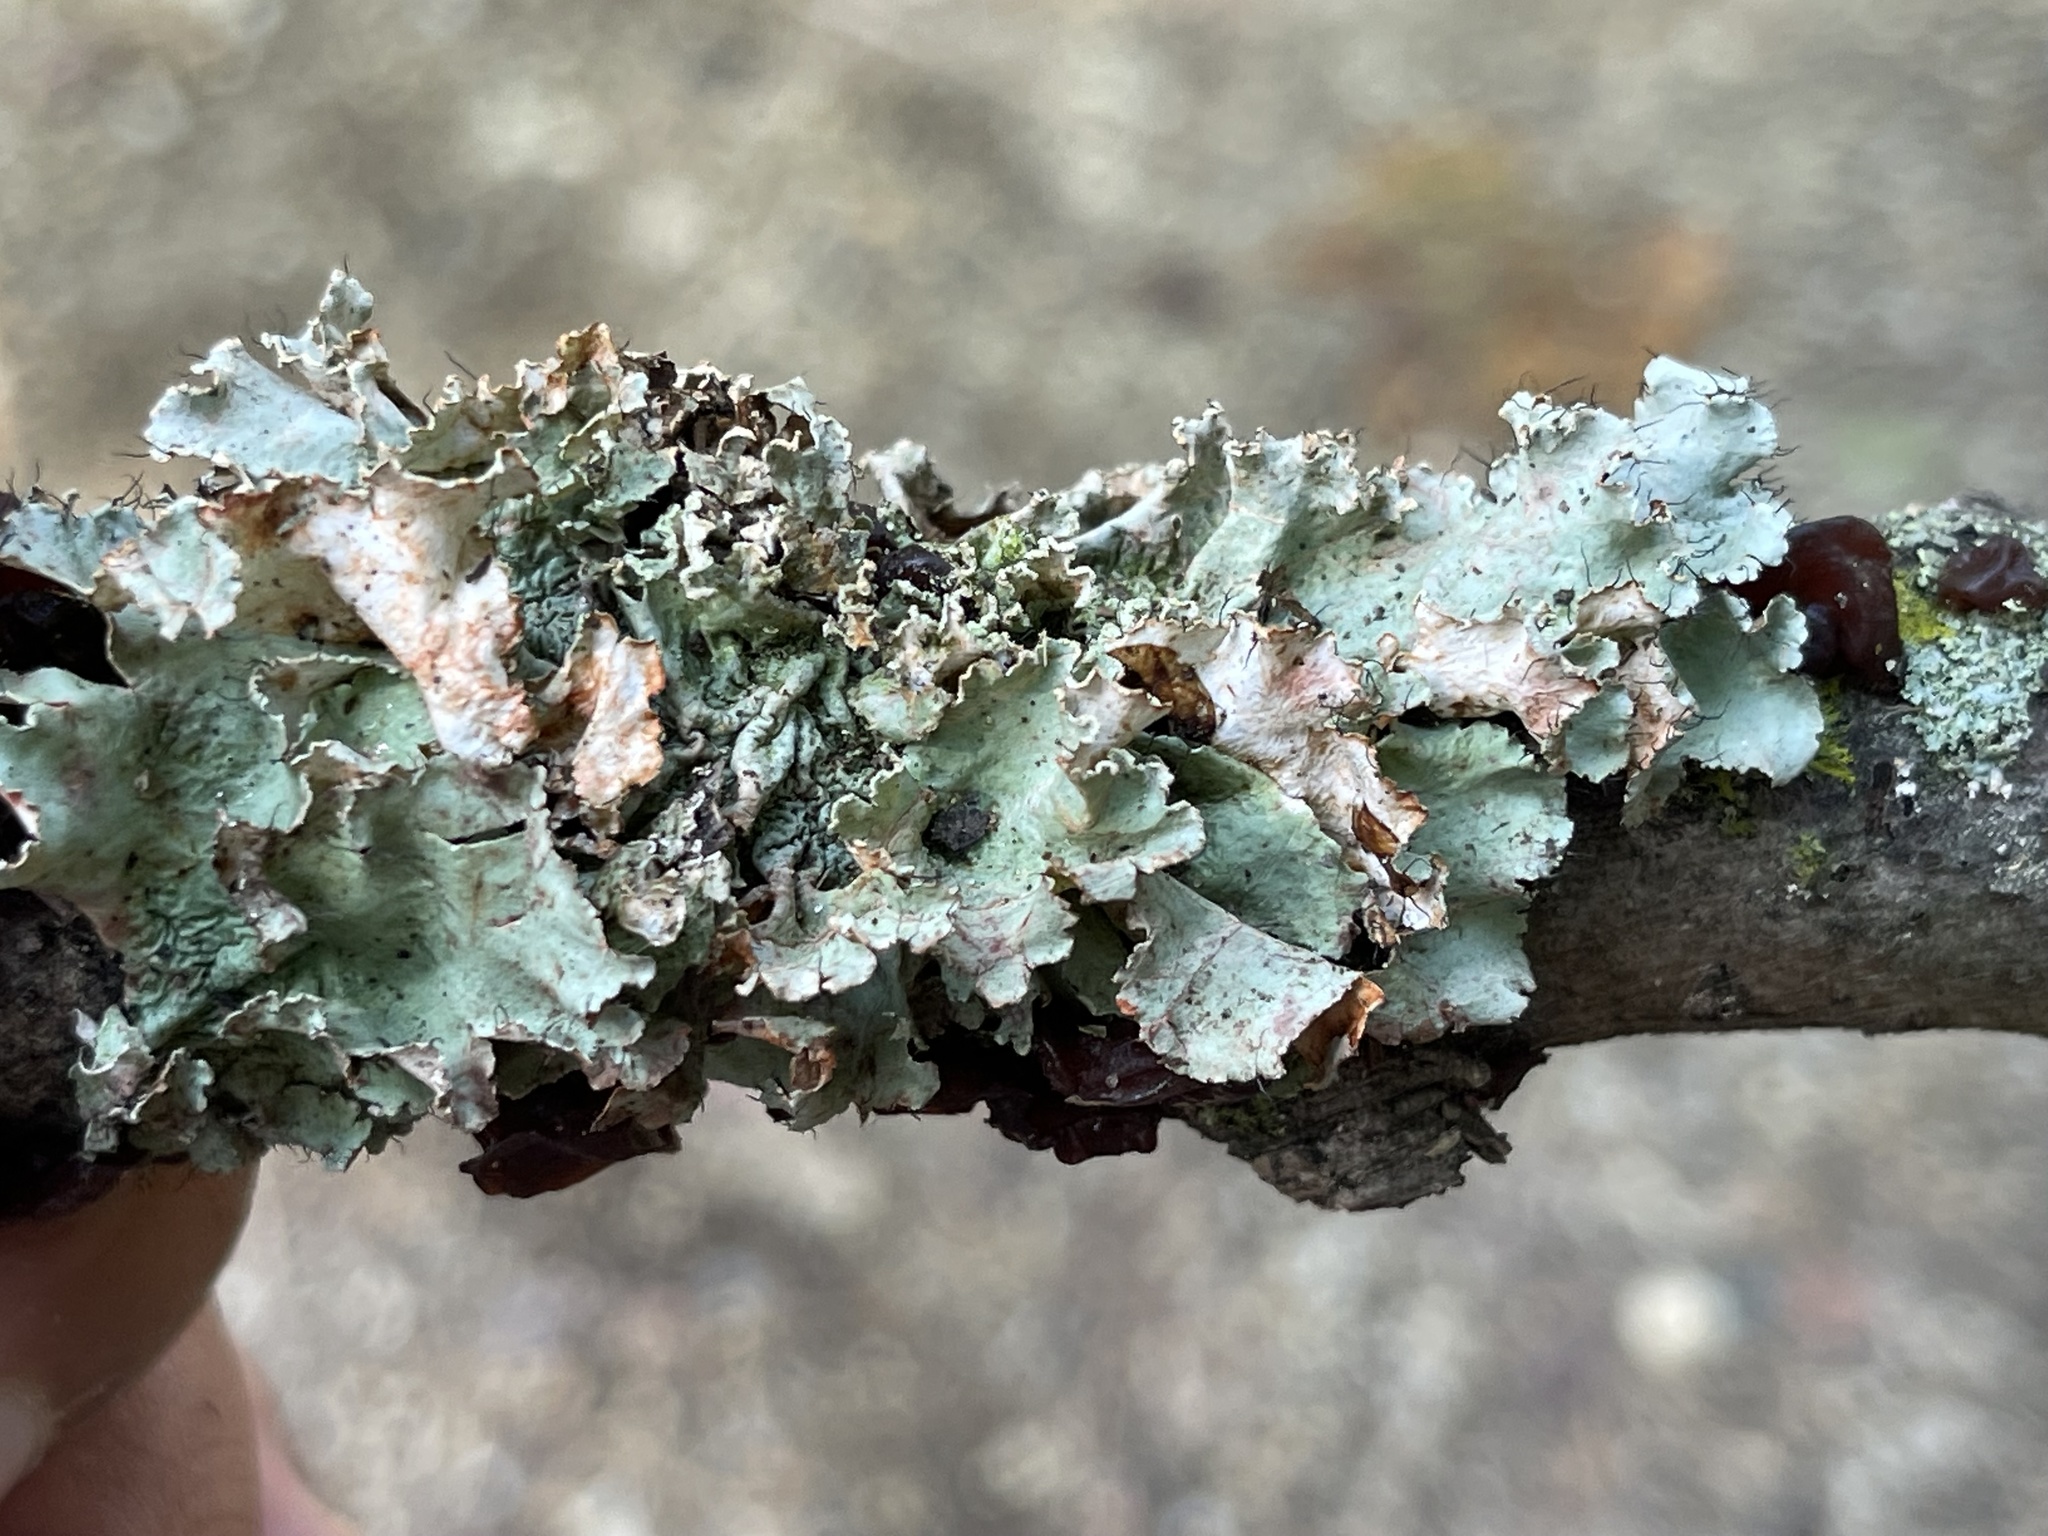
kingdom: Fungi
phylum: Ascomycota
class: Lecanoromycetes
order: Lecanorales
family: Parmeliaceae
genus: Parmotrema
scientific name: Parmotrema hypotropum
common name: Powdered ruffle lichen
